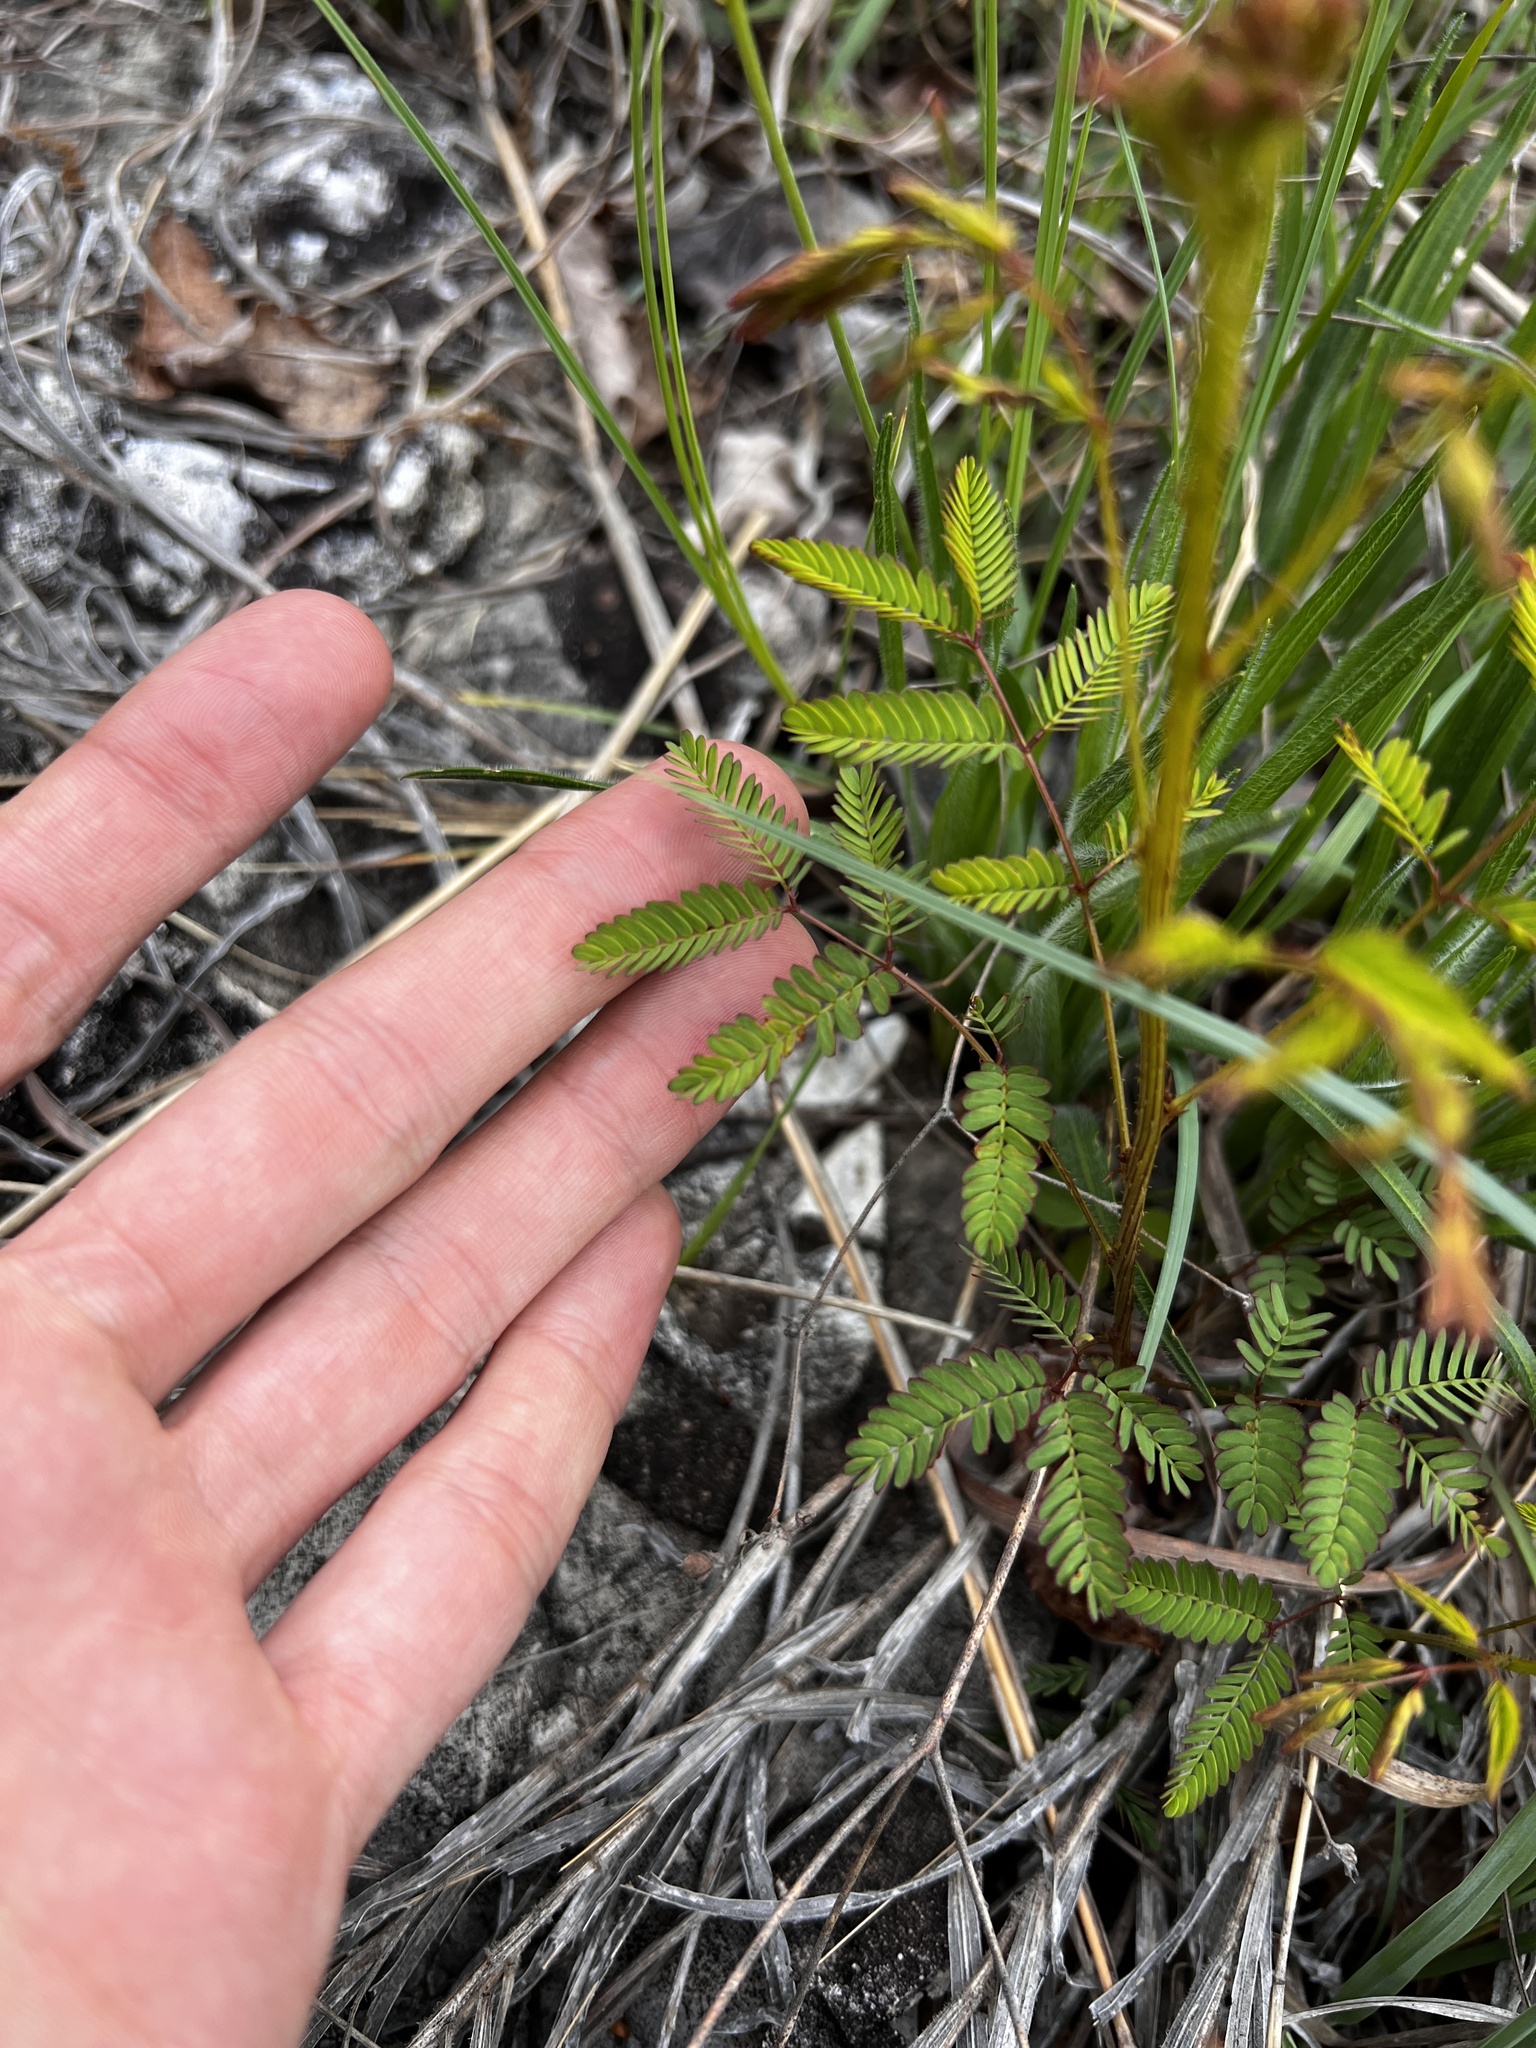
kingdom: Plantae
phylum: Tracheophyta
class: Magnoliopsida
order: Fabales
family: Fabaceae
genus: Mimosa
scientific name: Mimosa quadrivalvis
